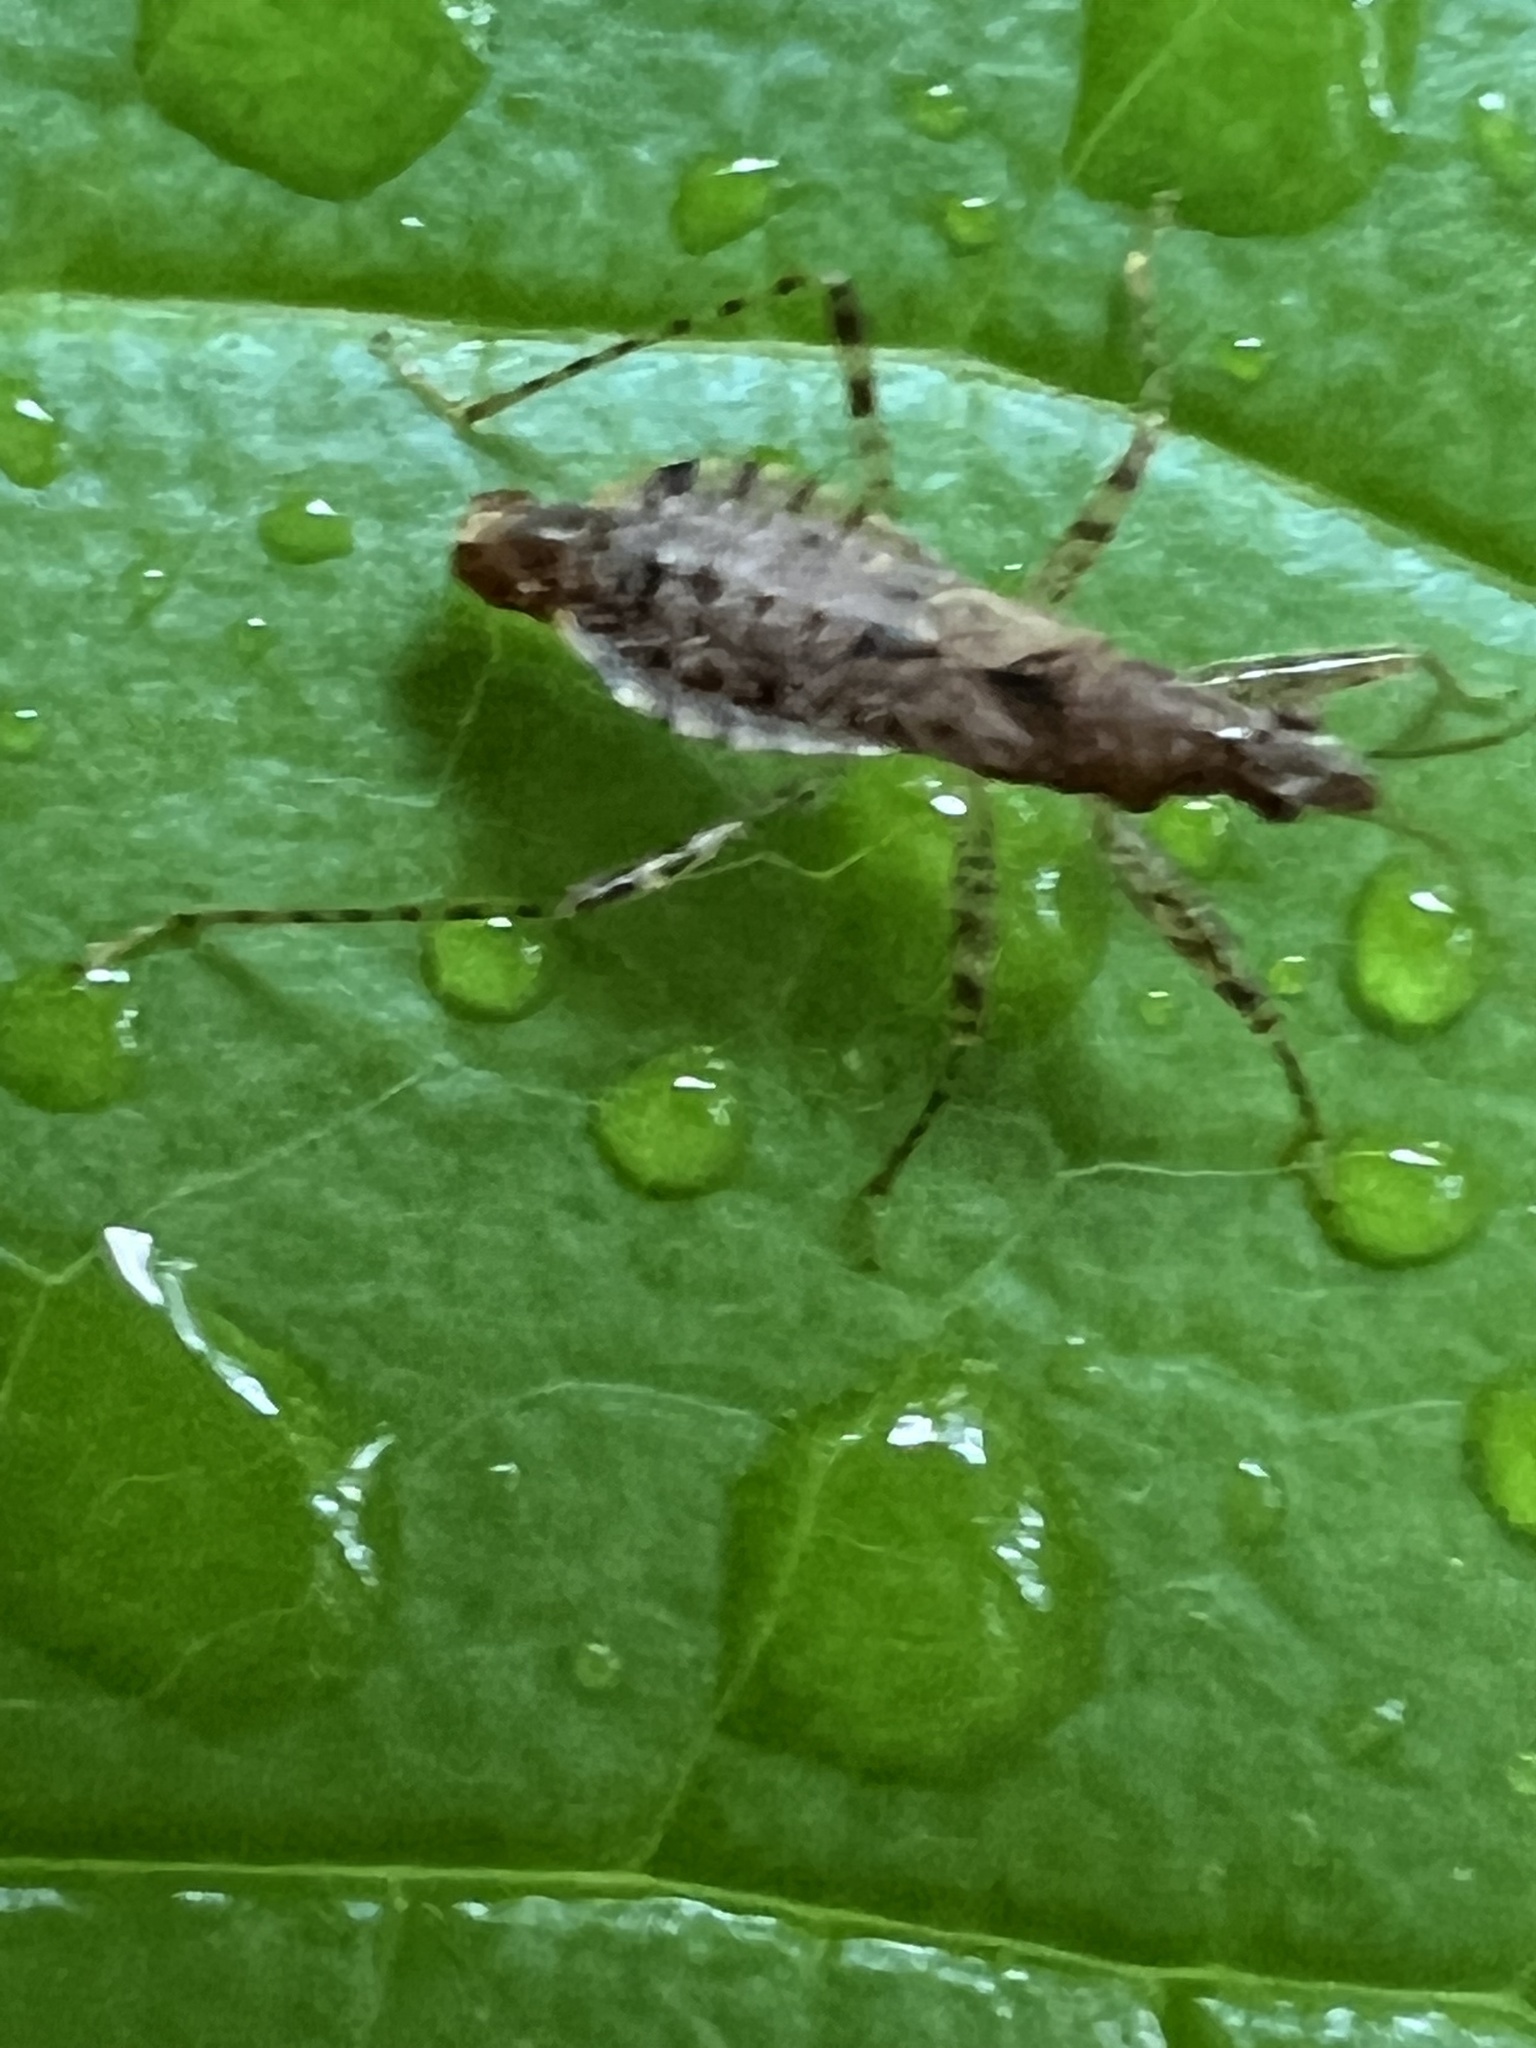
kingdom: Animalia
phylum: Arthropoda
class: Insecta
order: Hemiptera
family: Nabidae
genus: Hoplistoscelis
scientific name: Hoplistoscelis pallescens
